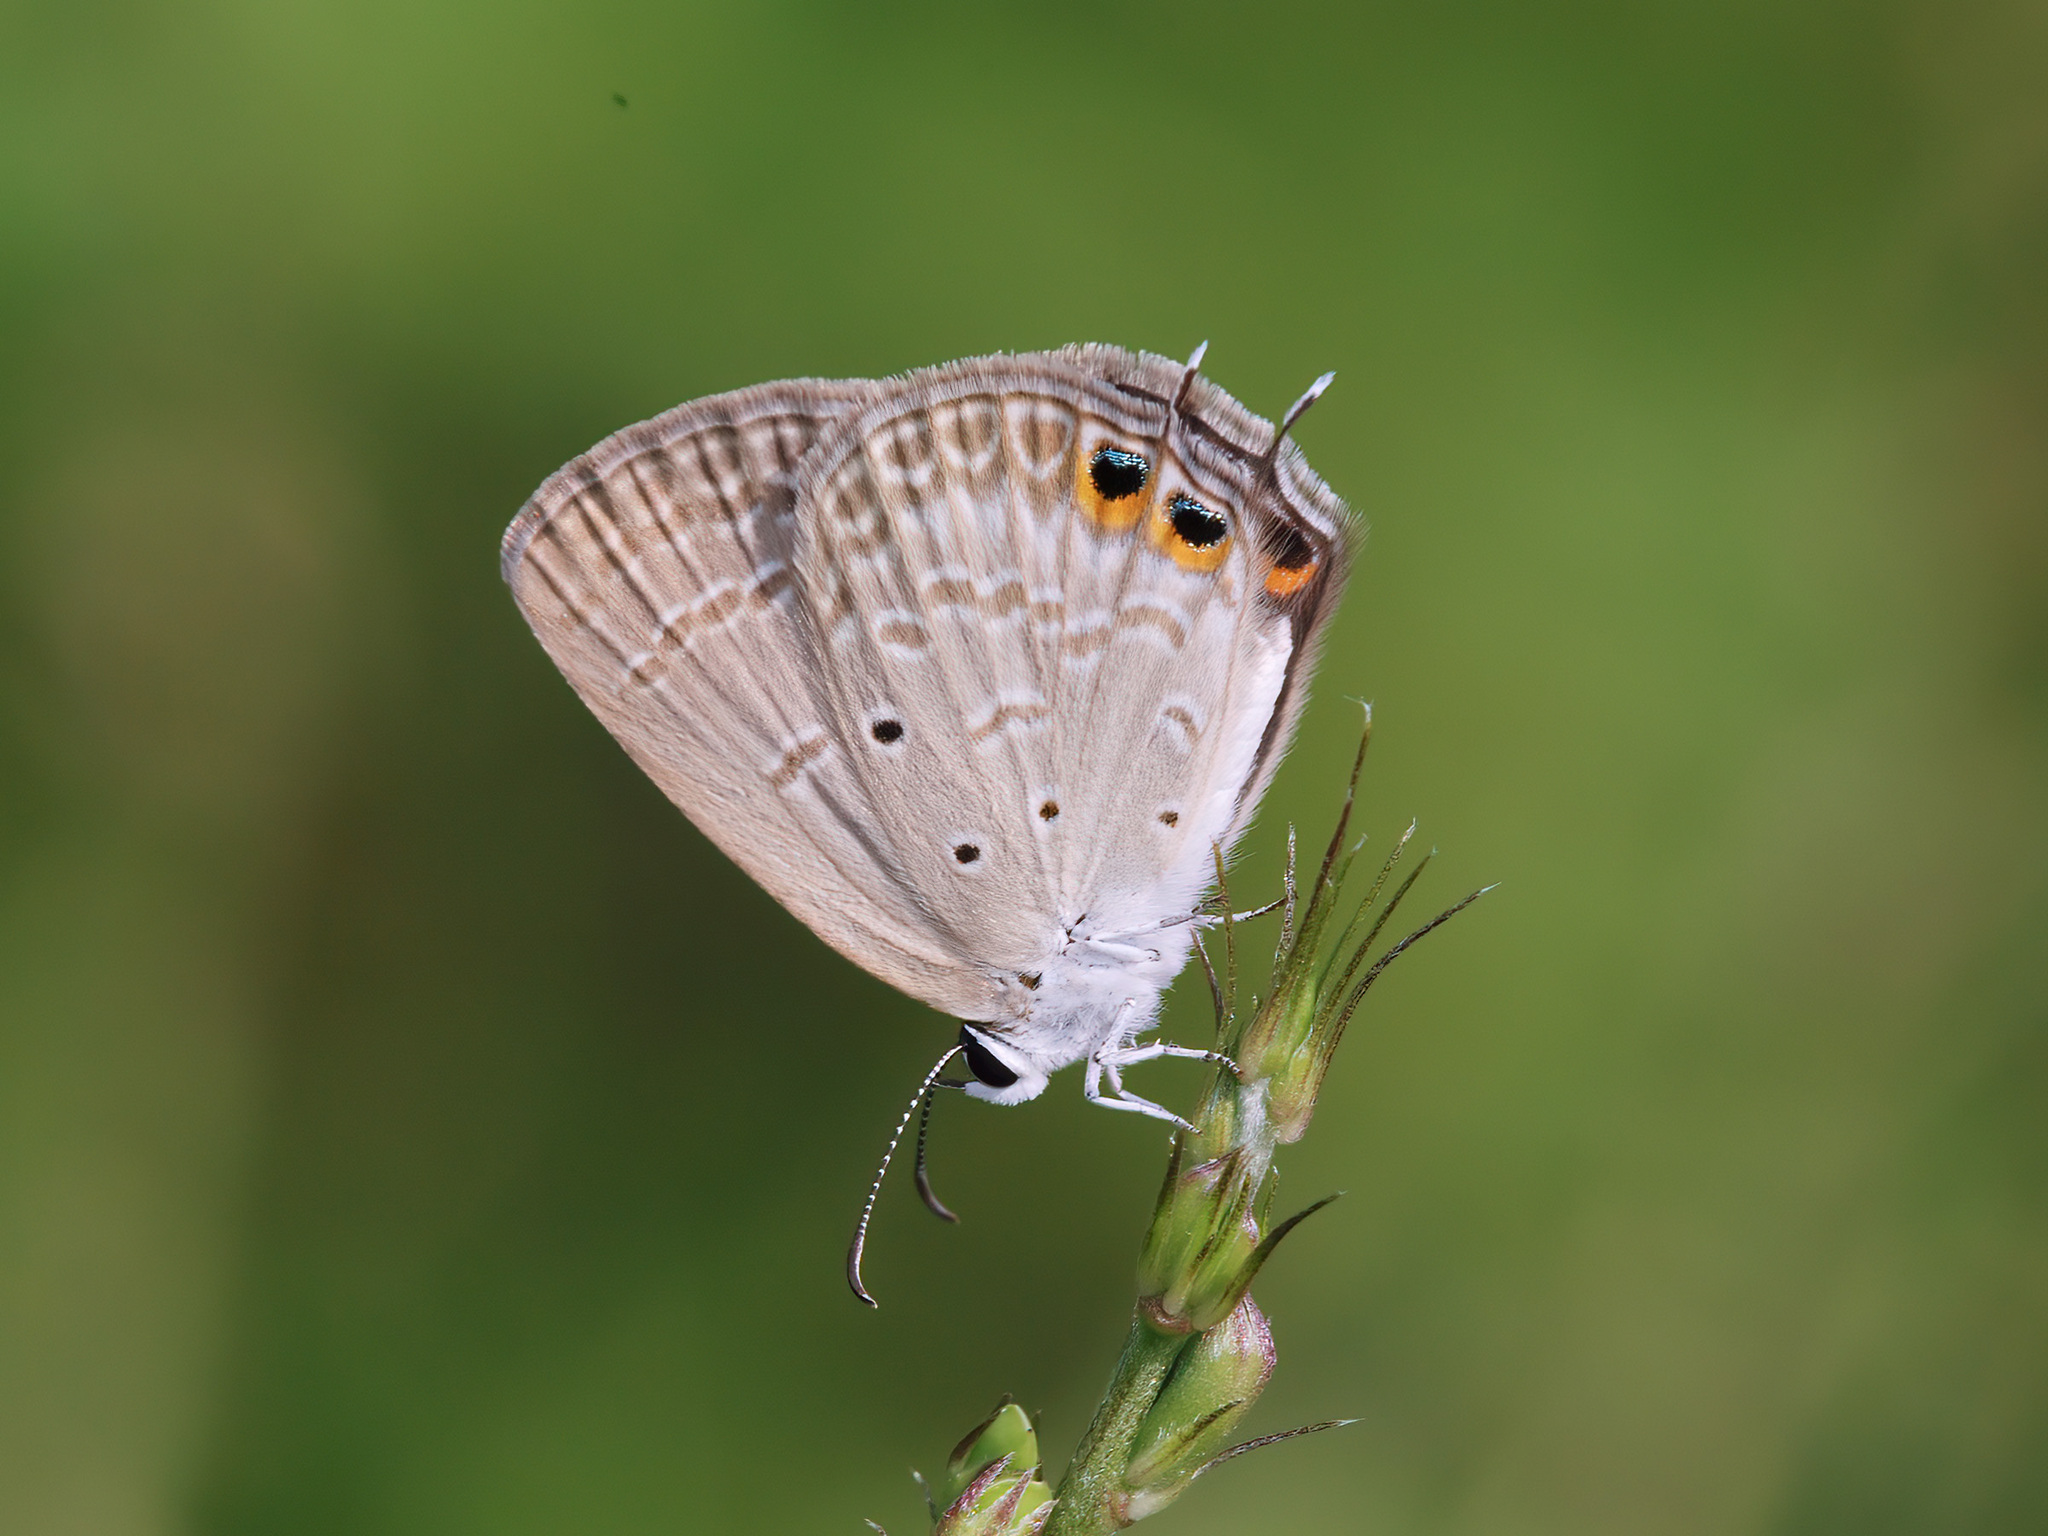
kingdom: Animalia
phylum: Arthropoda
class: Insecta
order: Lepidoptera
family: Lycaenidae
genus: Euchrysops
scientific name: Euchrysops cnejus
